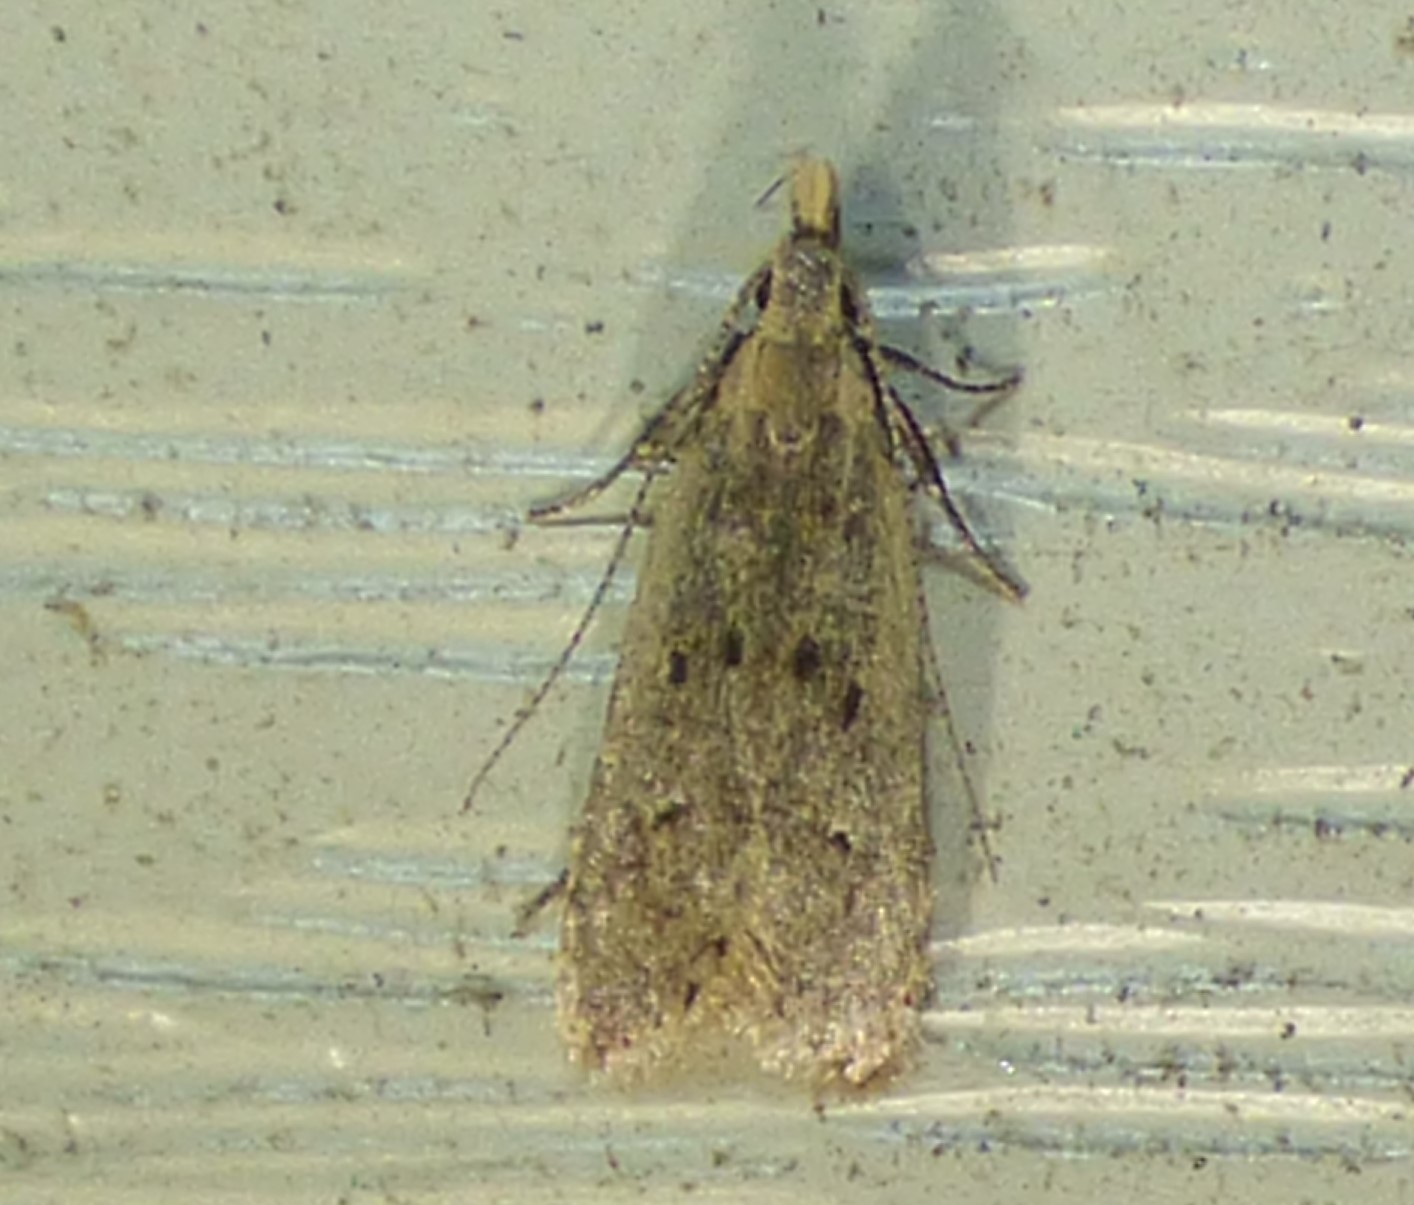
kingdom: Animalia
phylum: Arthropoda
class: Insecta
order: Lepidoptera
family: Gelechiidae
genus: Dichomeris
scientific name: Dichomeris punctipennella
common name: Many-spotted dichomeris moth
